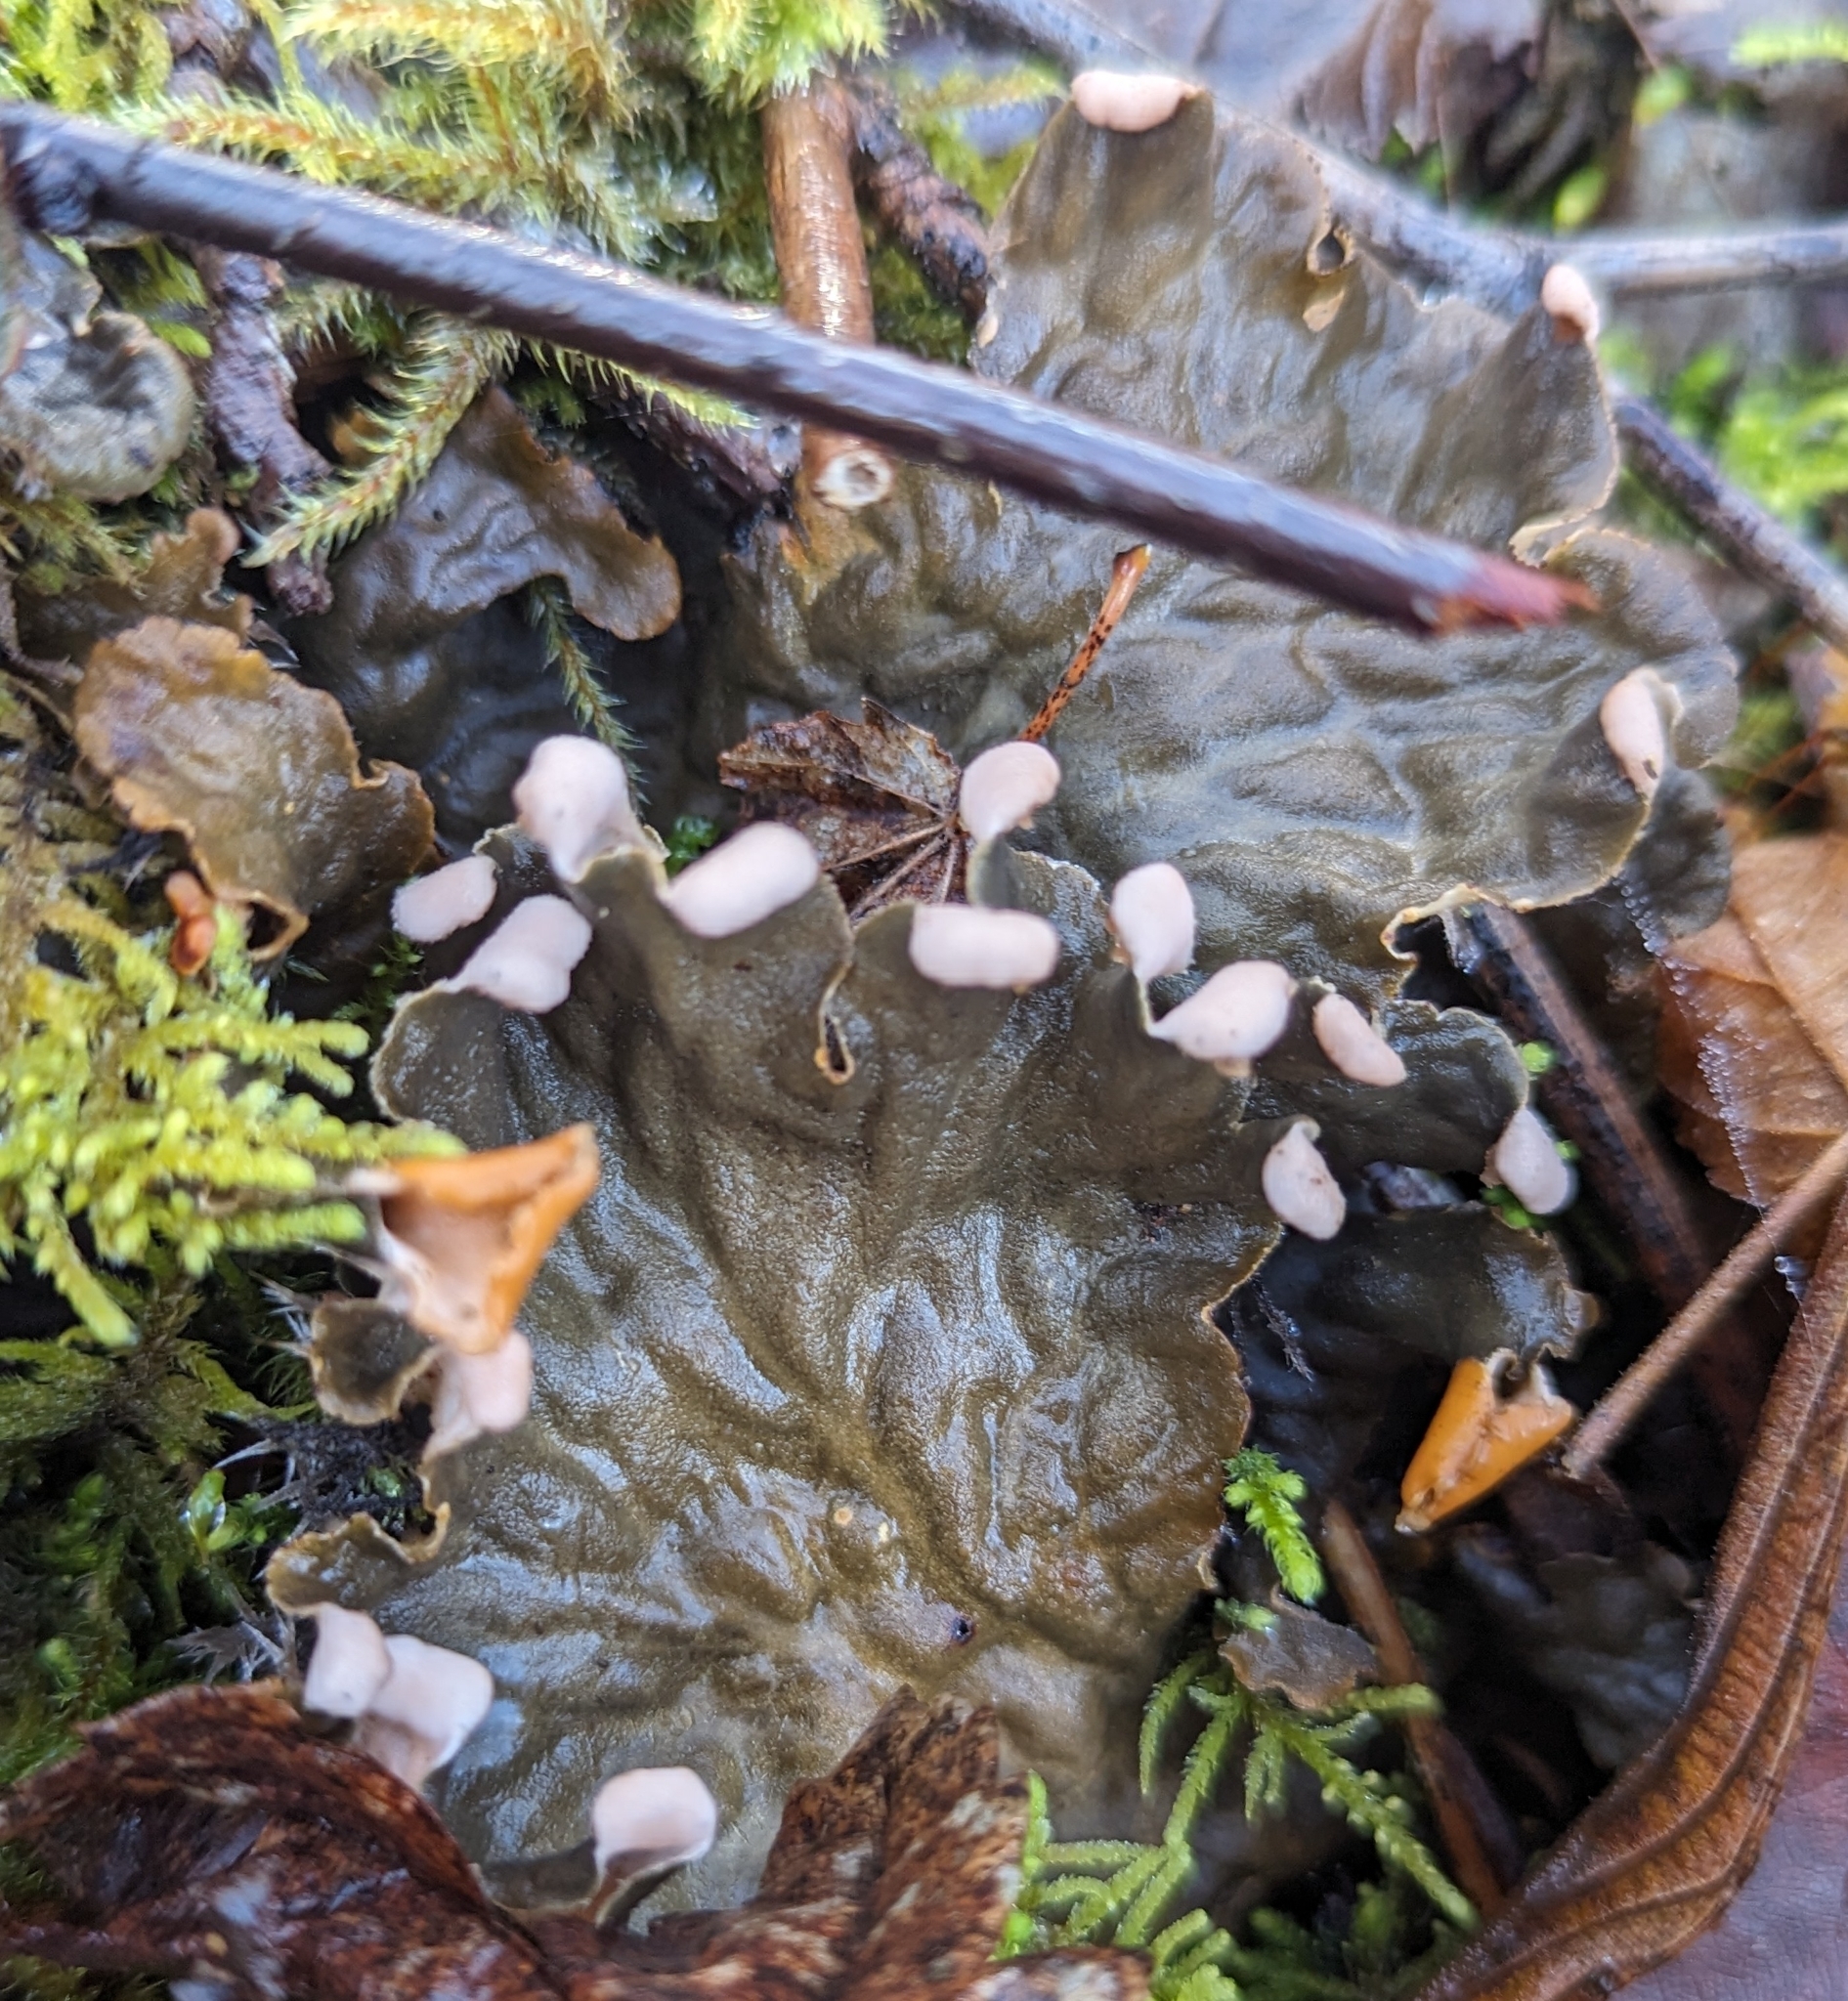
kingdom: Fungi
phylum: Ascomycota
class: Lecanoromycetes
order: Peltigerales
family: Peltigeraceae
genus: Peltigera
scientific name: Peltigera membranacea
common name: Membranous pelt lichen
